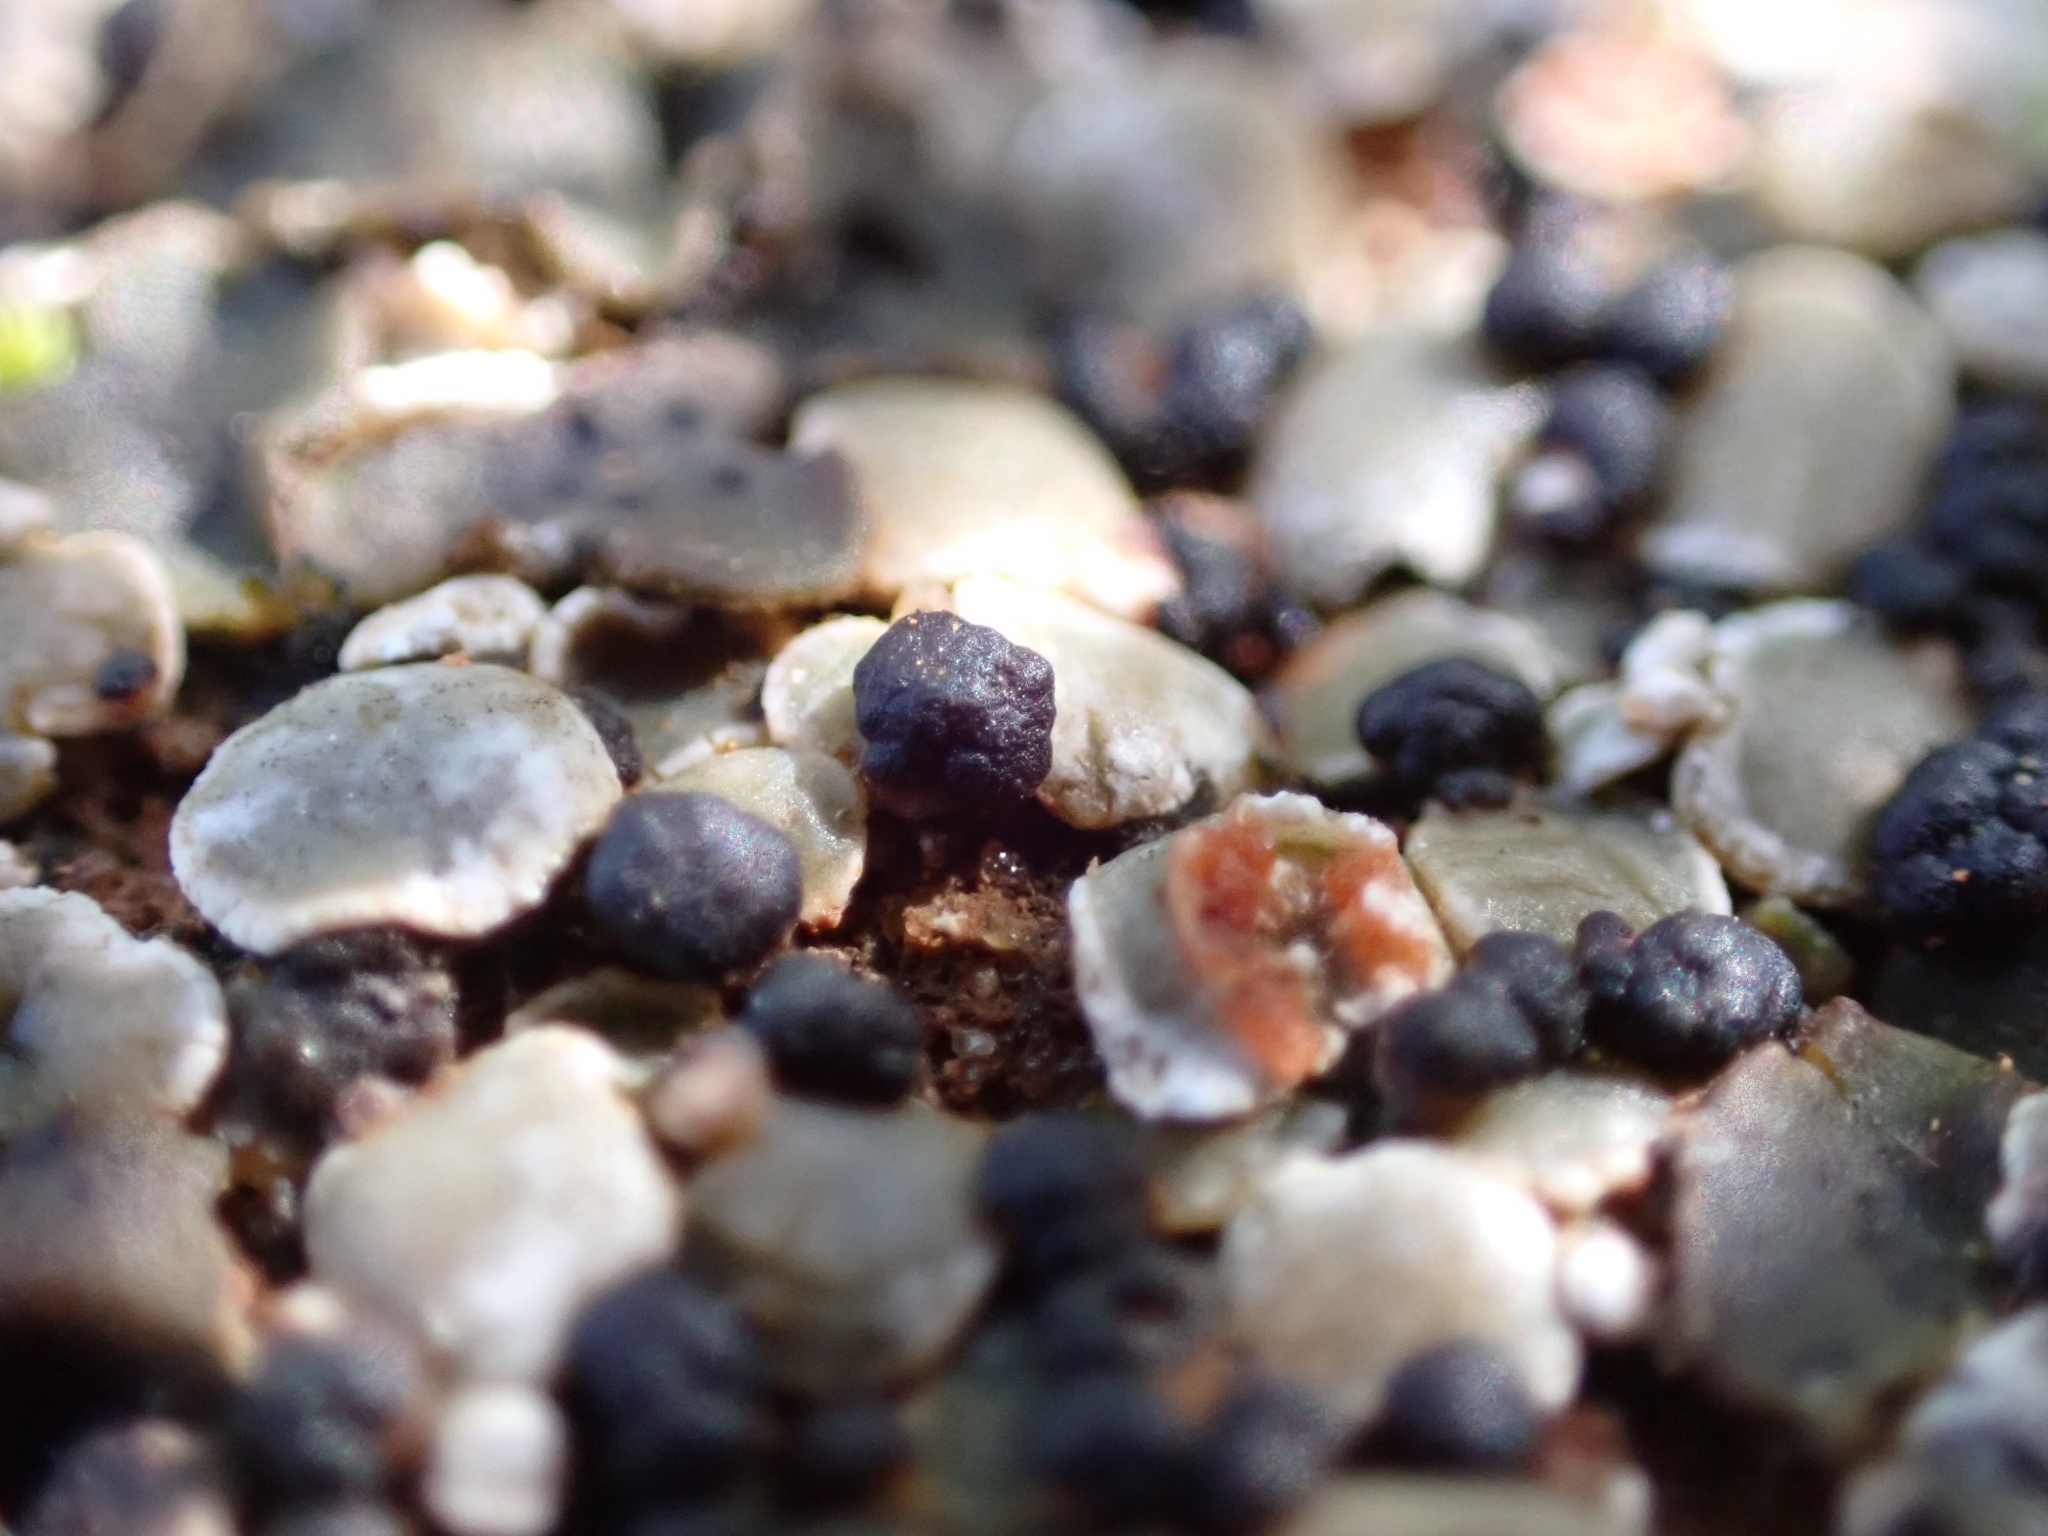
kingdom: Fungi
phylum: Ascomycota
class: Lecanoromycetes
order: Lecanorales
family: Psoraceae
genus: Psora
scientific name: Psora decipiens
